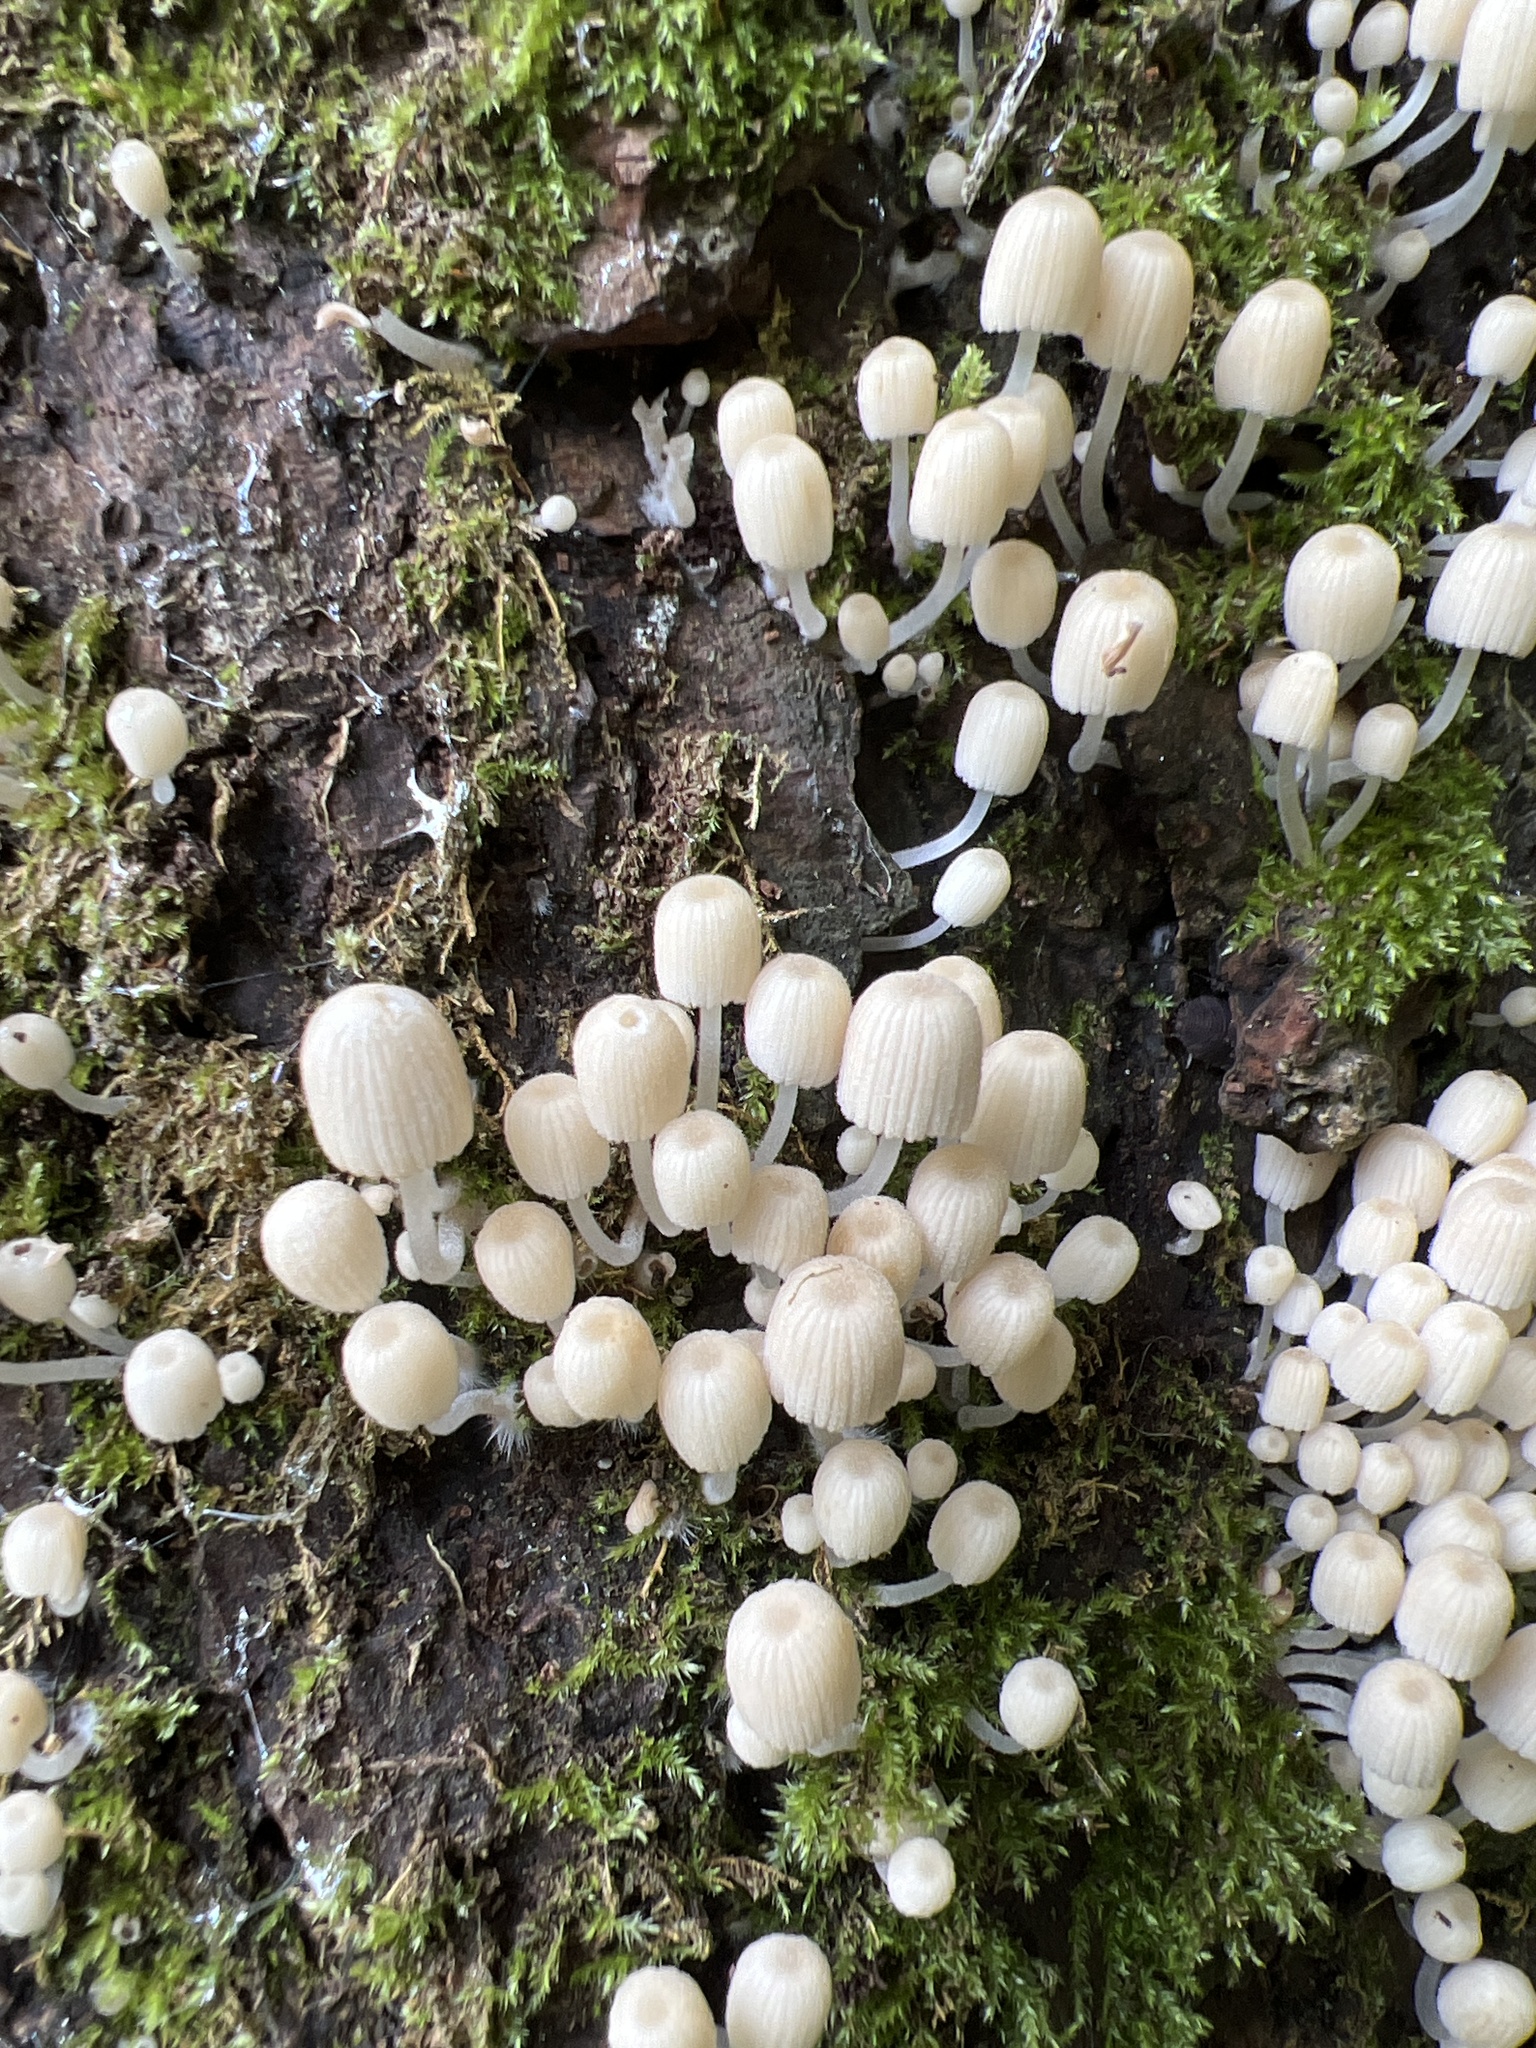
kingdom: Fungi
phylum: Basidiomycota
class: Agaricomycetes
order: Agaricales
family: Psathyrellaceae
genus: Coprinellus
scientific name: Coprinellus disseminatus
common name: Fairies' bonnets
